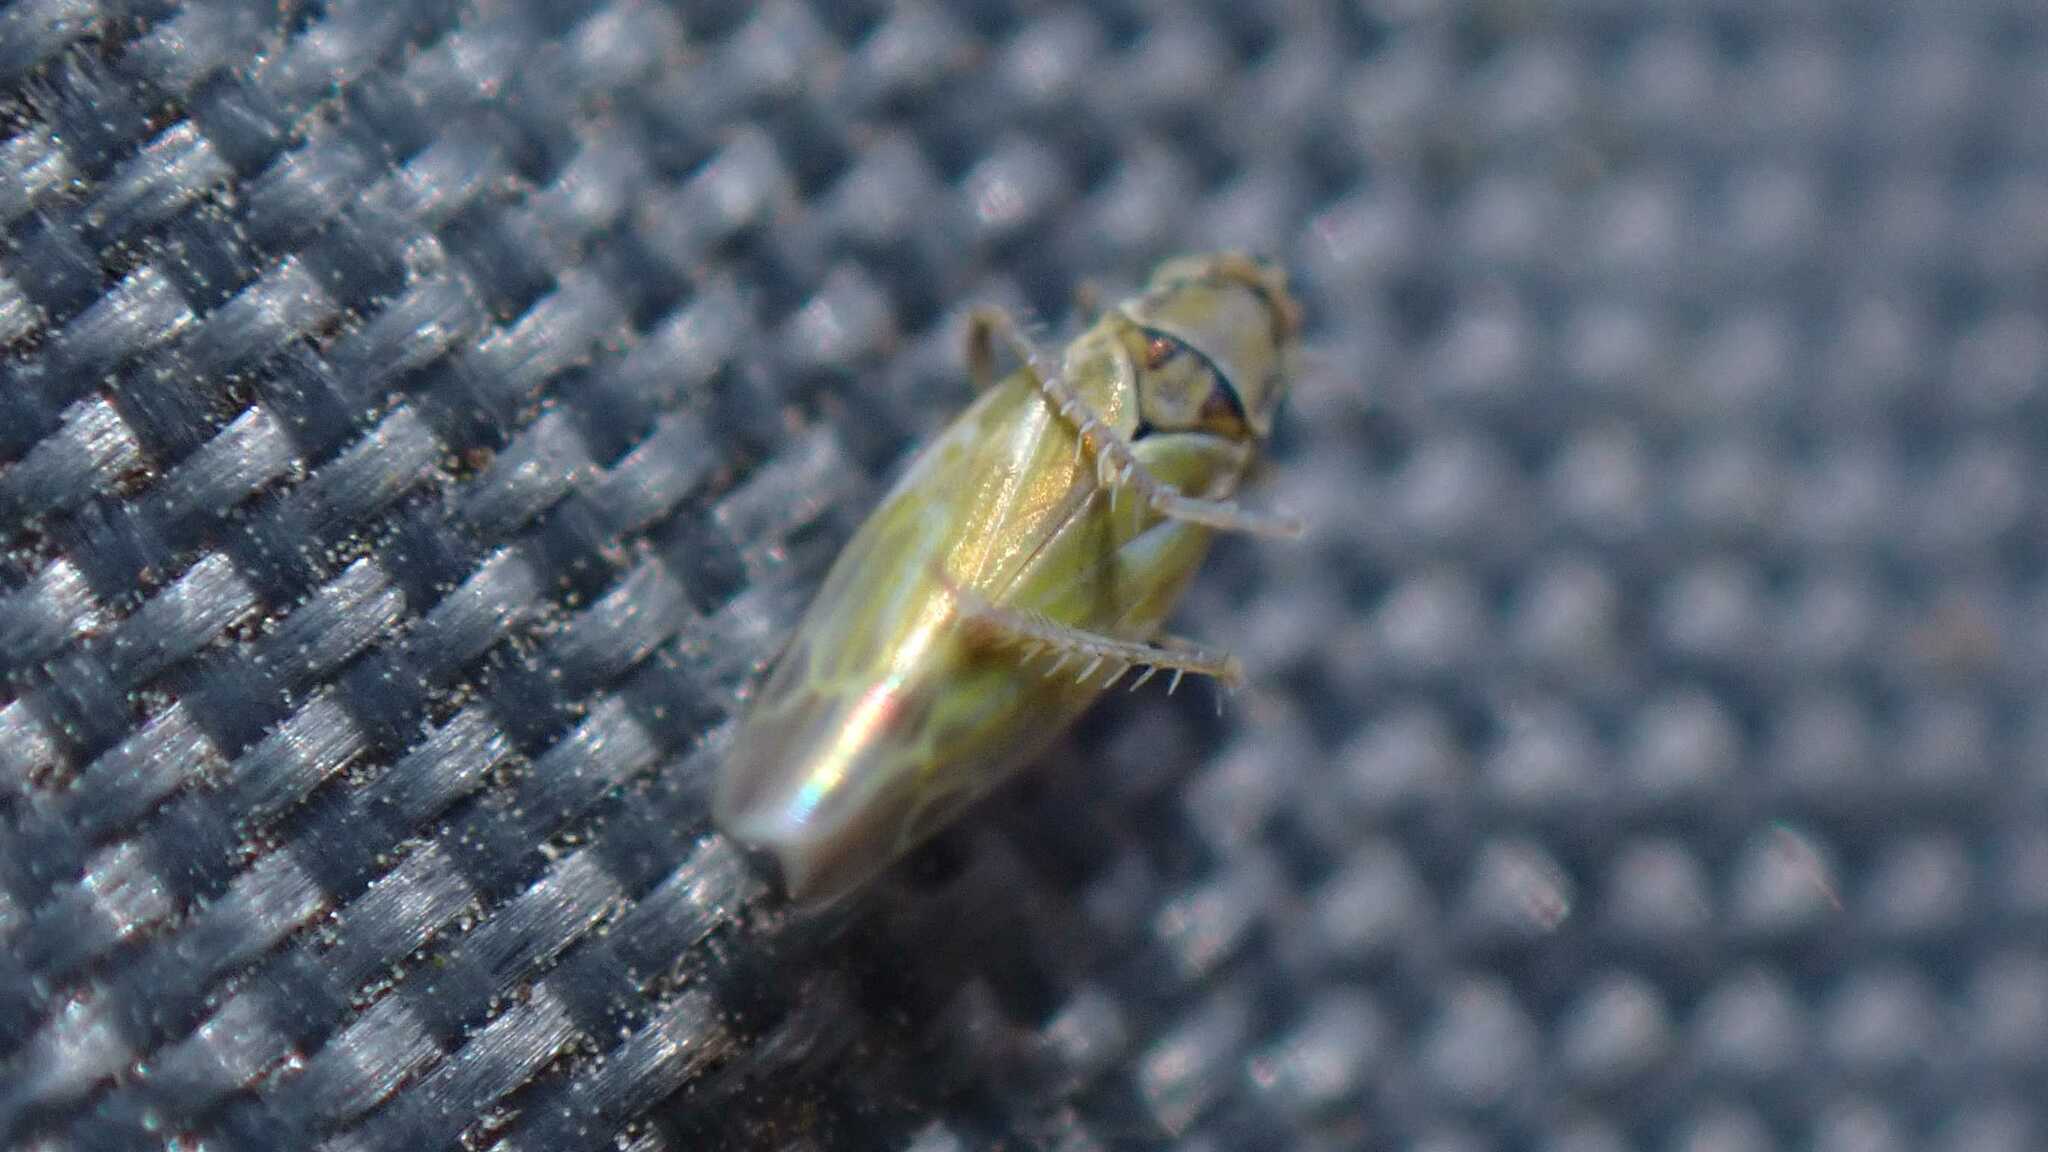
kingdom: Animalia
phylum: Arthropoda
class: Insecta
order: Hemiptera
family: Cicadellidae
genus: Frutioidia
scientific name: Frutioidia bisignata
